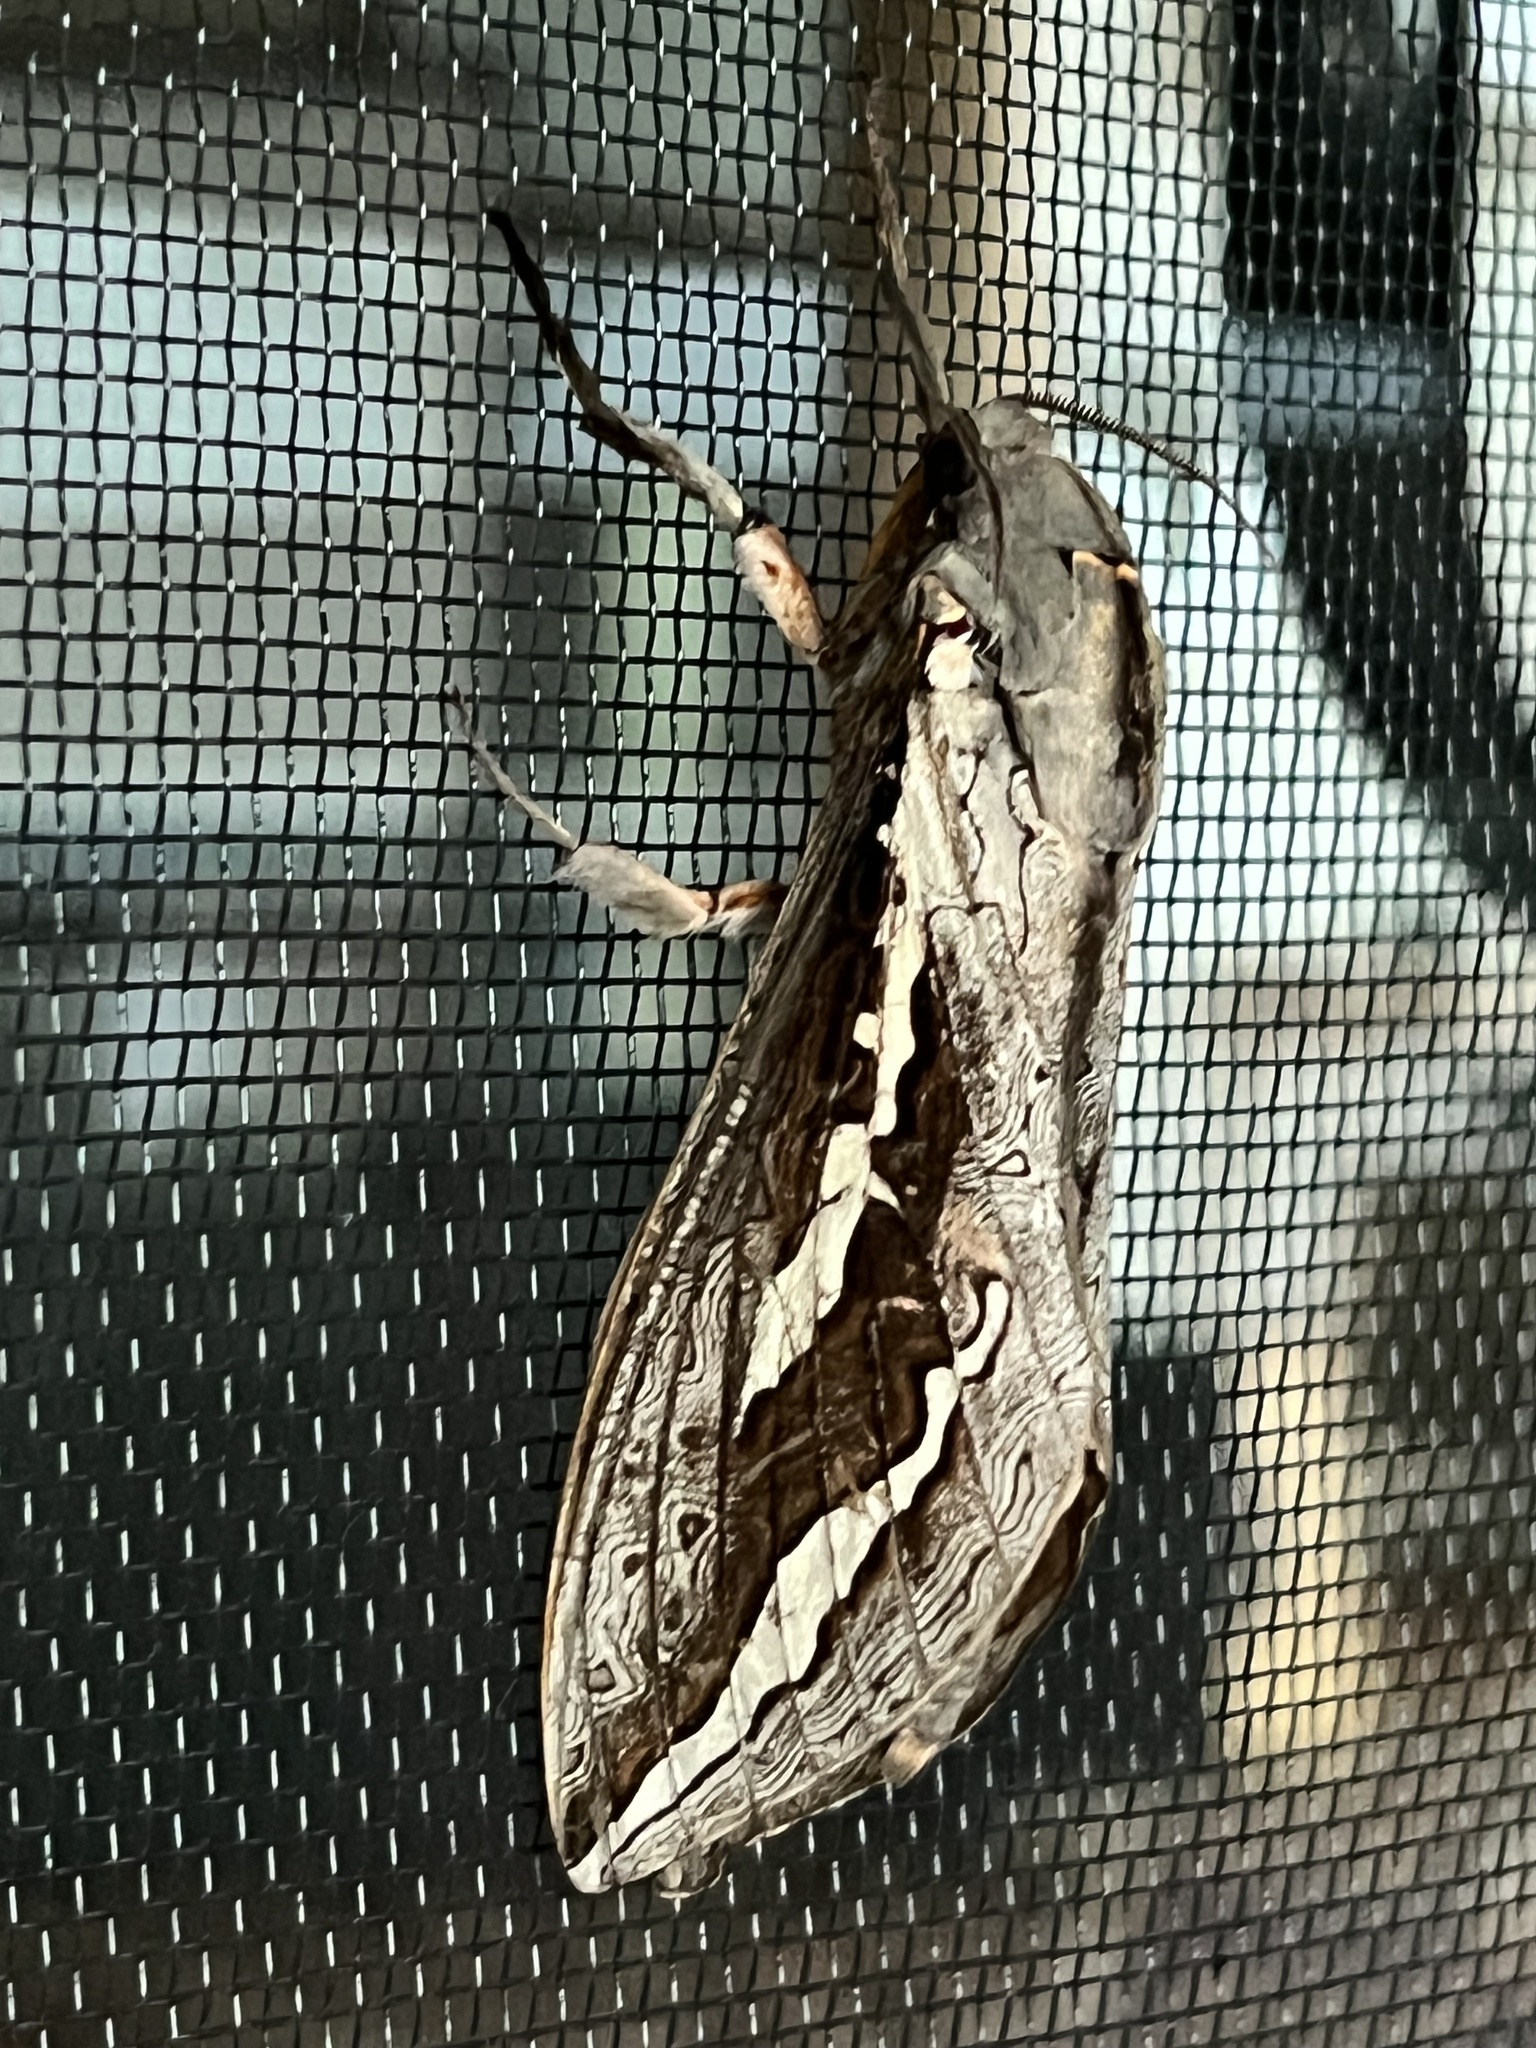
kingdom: Animalia
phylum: Arthropoda
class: Insecta
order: Lepidoptera
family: Hepialidae
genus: Abantiades
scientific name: Abantiades labyrinthicus
